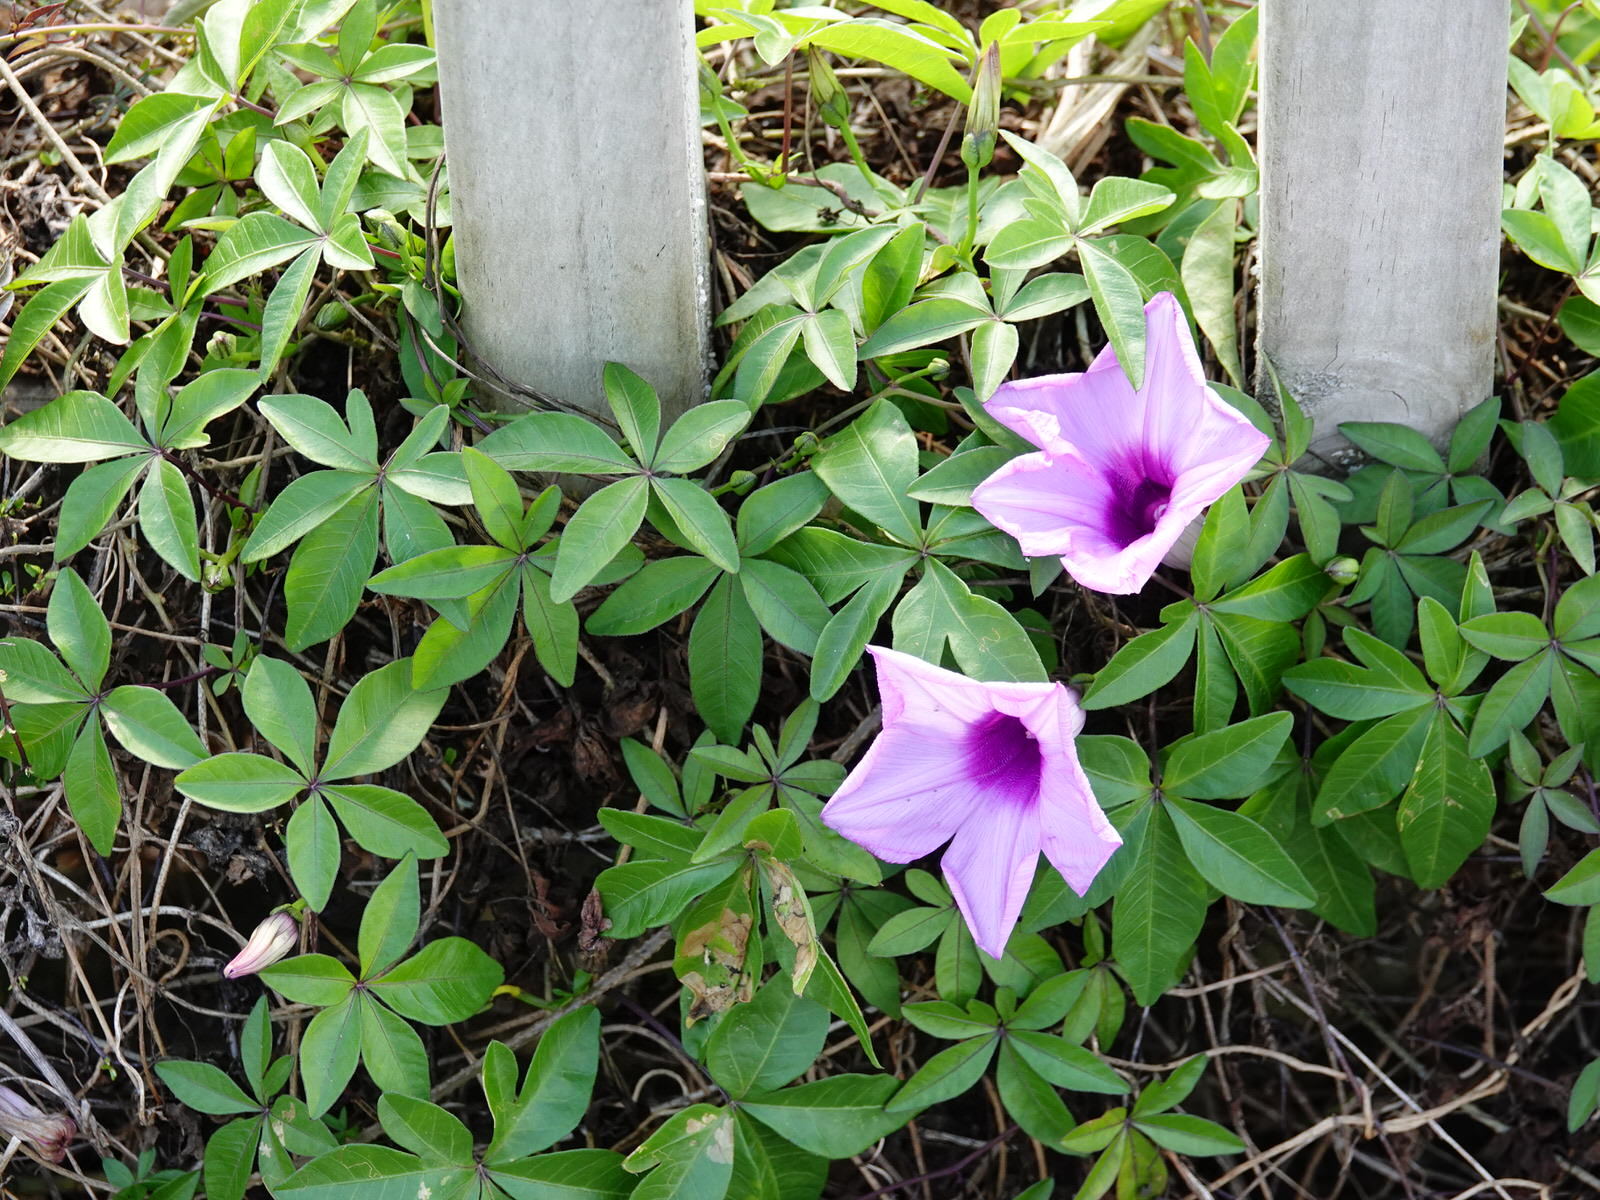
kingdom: Plantae
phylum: Tracheophyta
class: Magnoliopsida
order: Solanales
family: Convolvulaceae
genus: Ipomoea
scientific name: Ipomoea cairica
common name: Mile a minute vine
